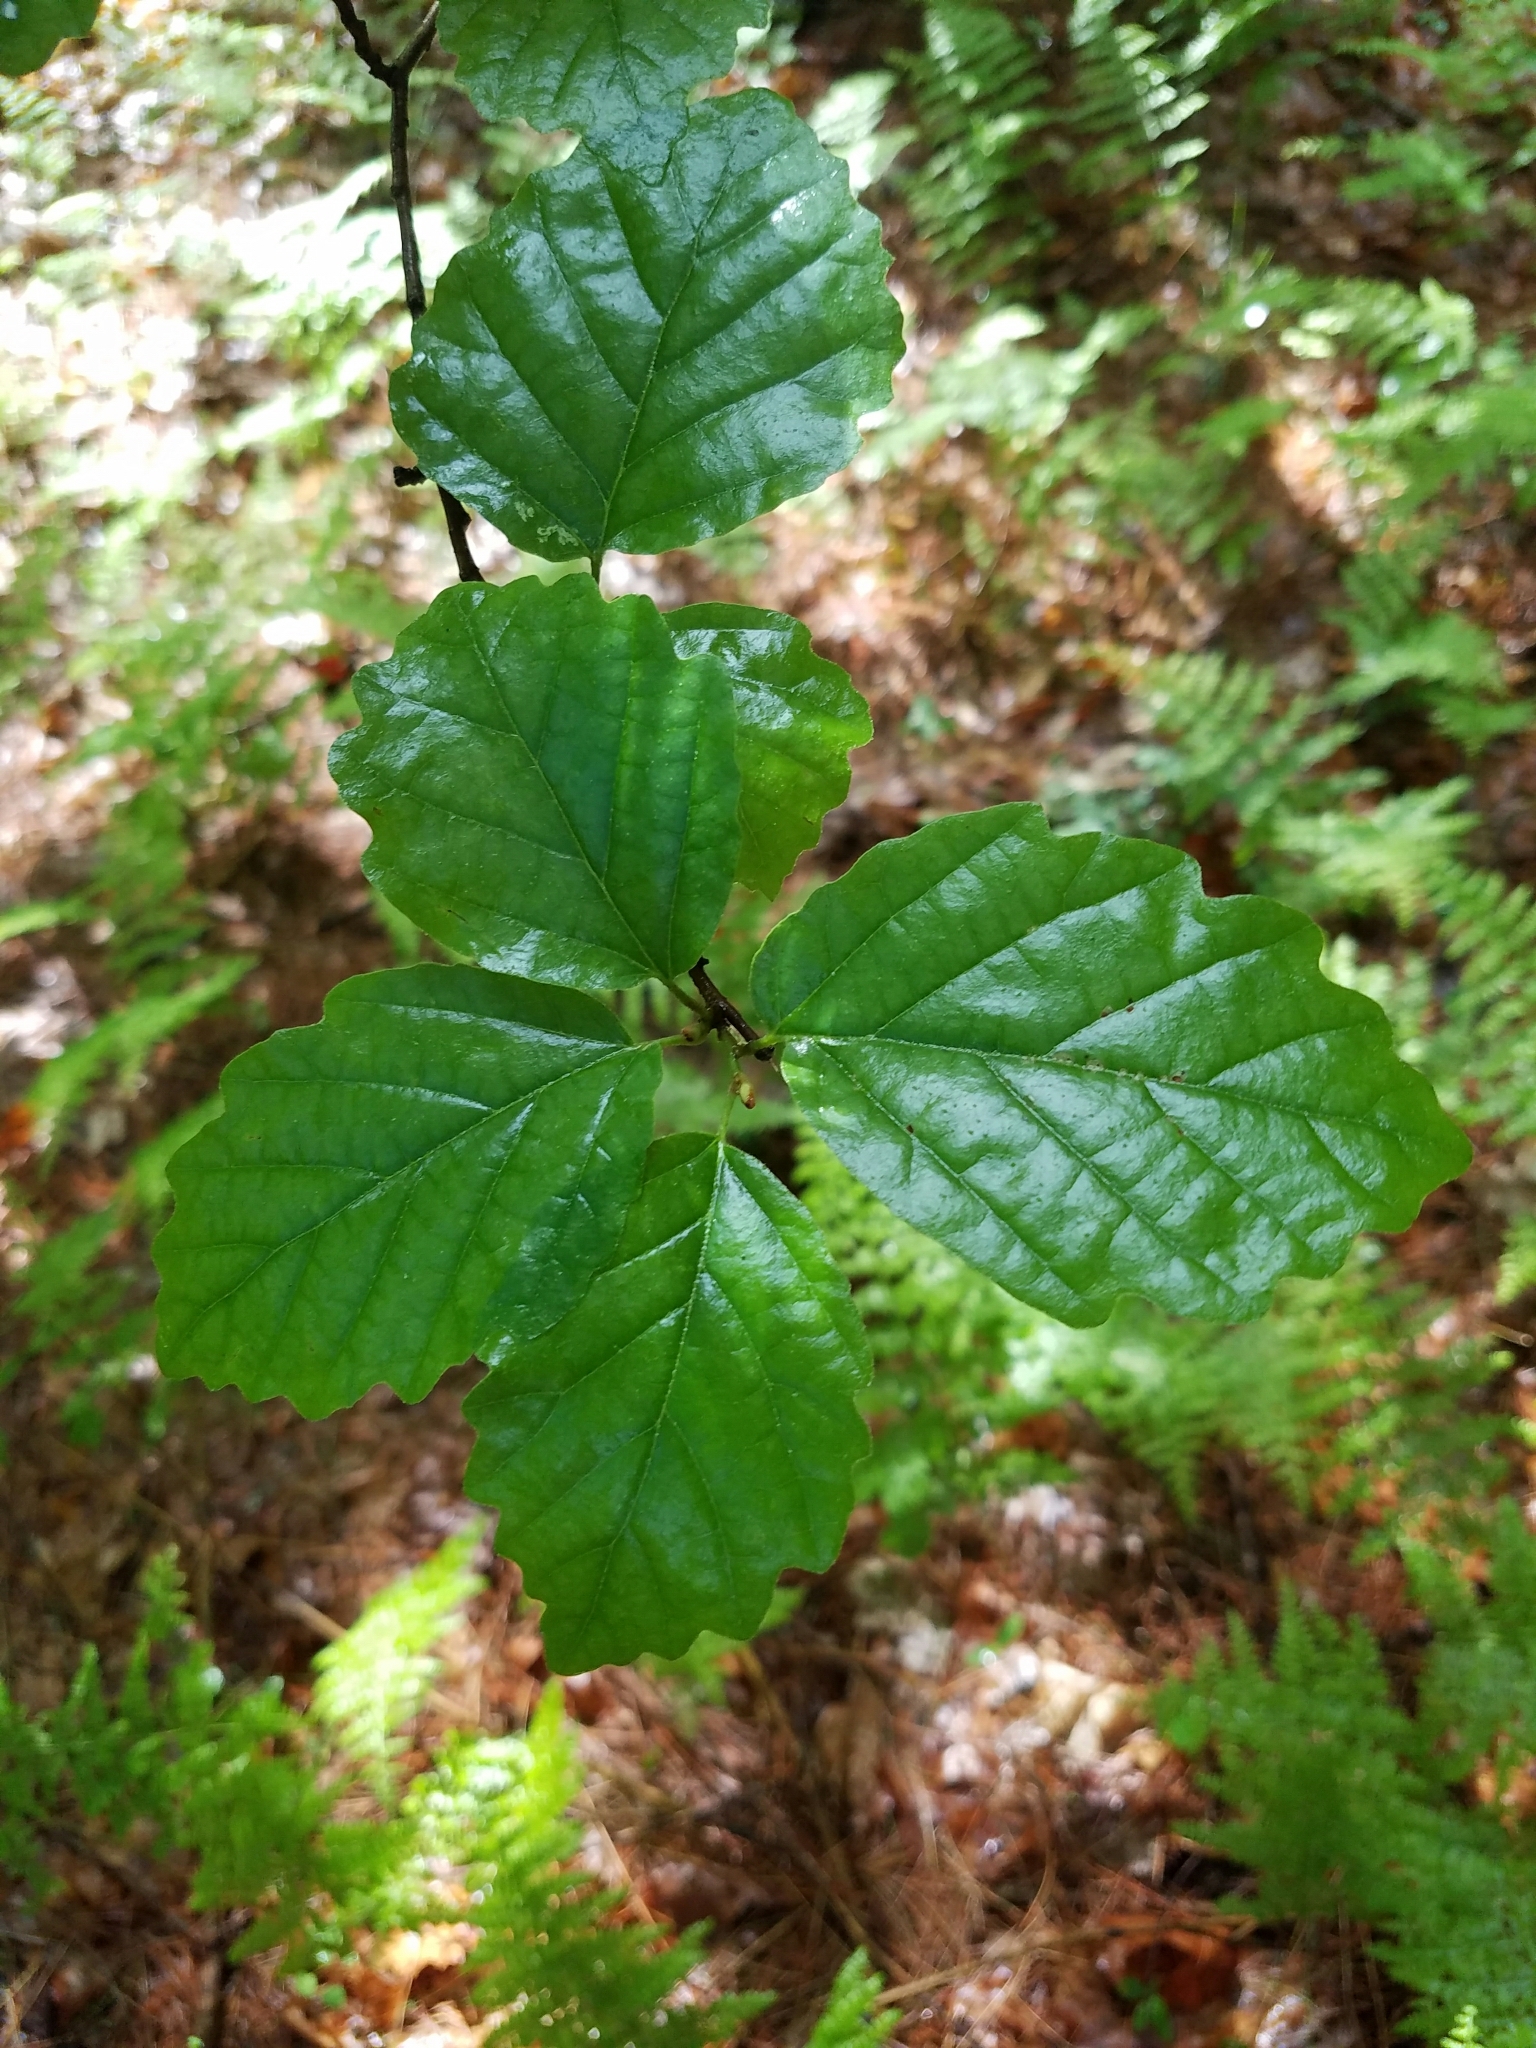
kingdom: Plantae
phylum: Tracheophyta
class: Magnoliopsida
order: Saxifragales
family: Hamamelidaceae
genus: Hamamelis
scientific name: Hamamelis virginiana
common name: Witch-hazel
